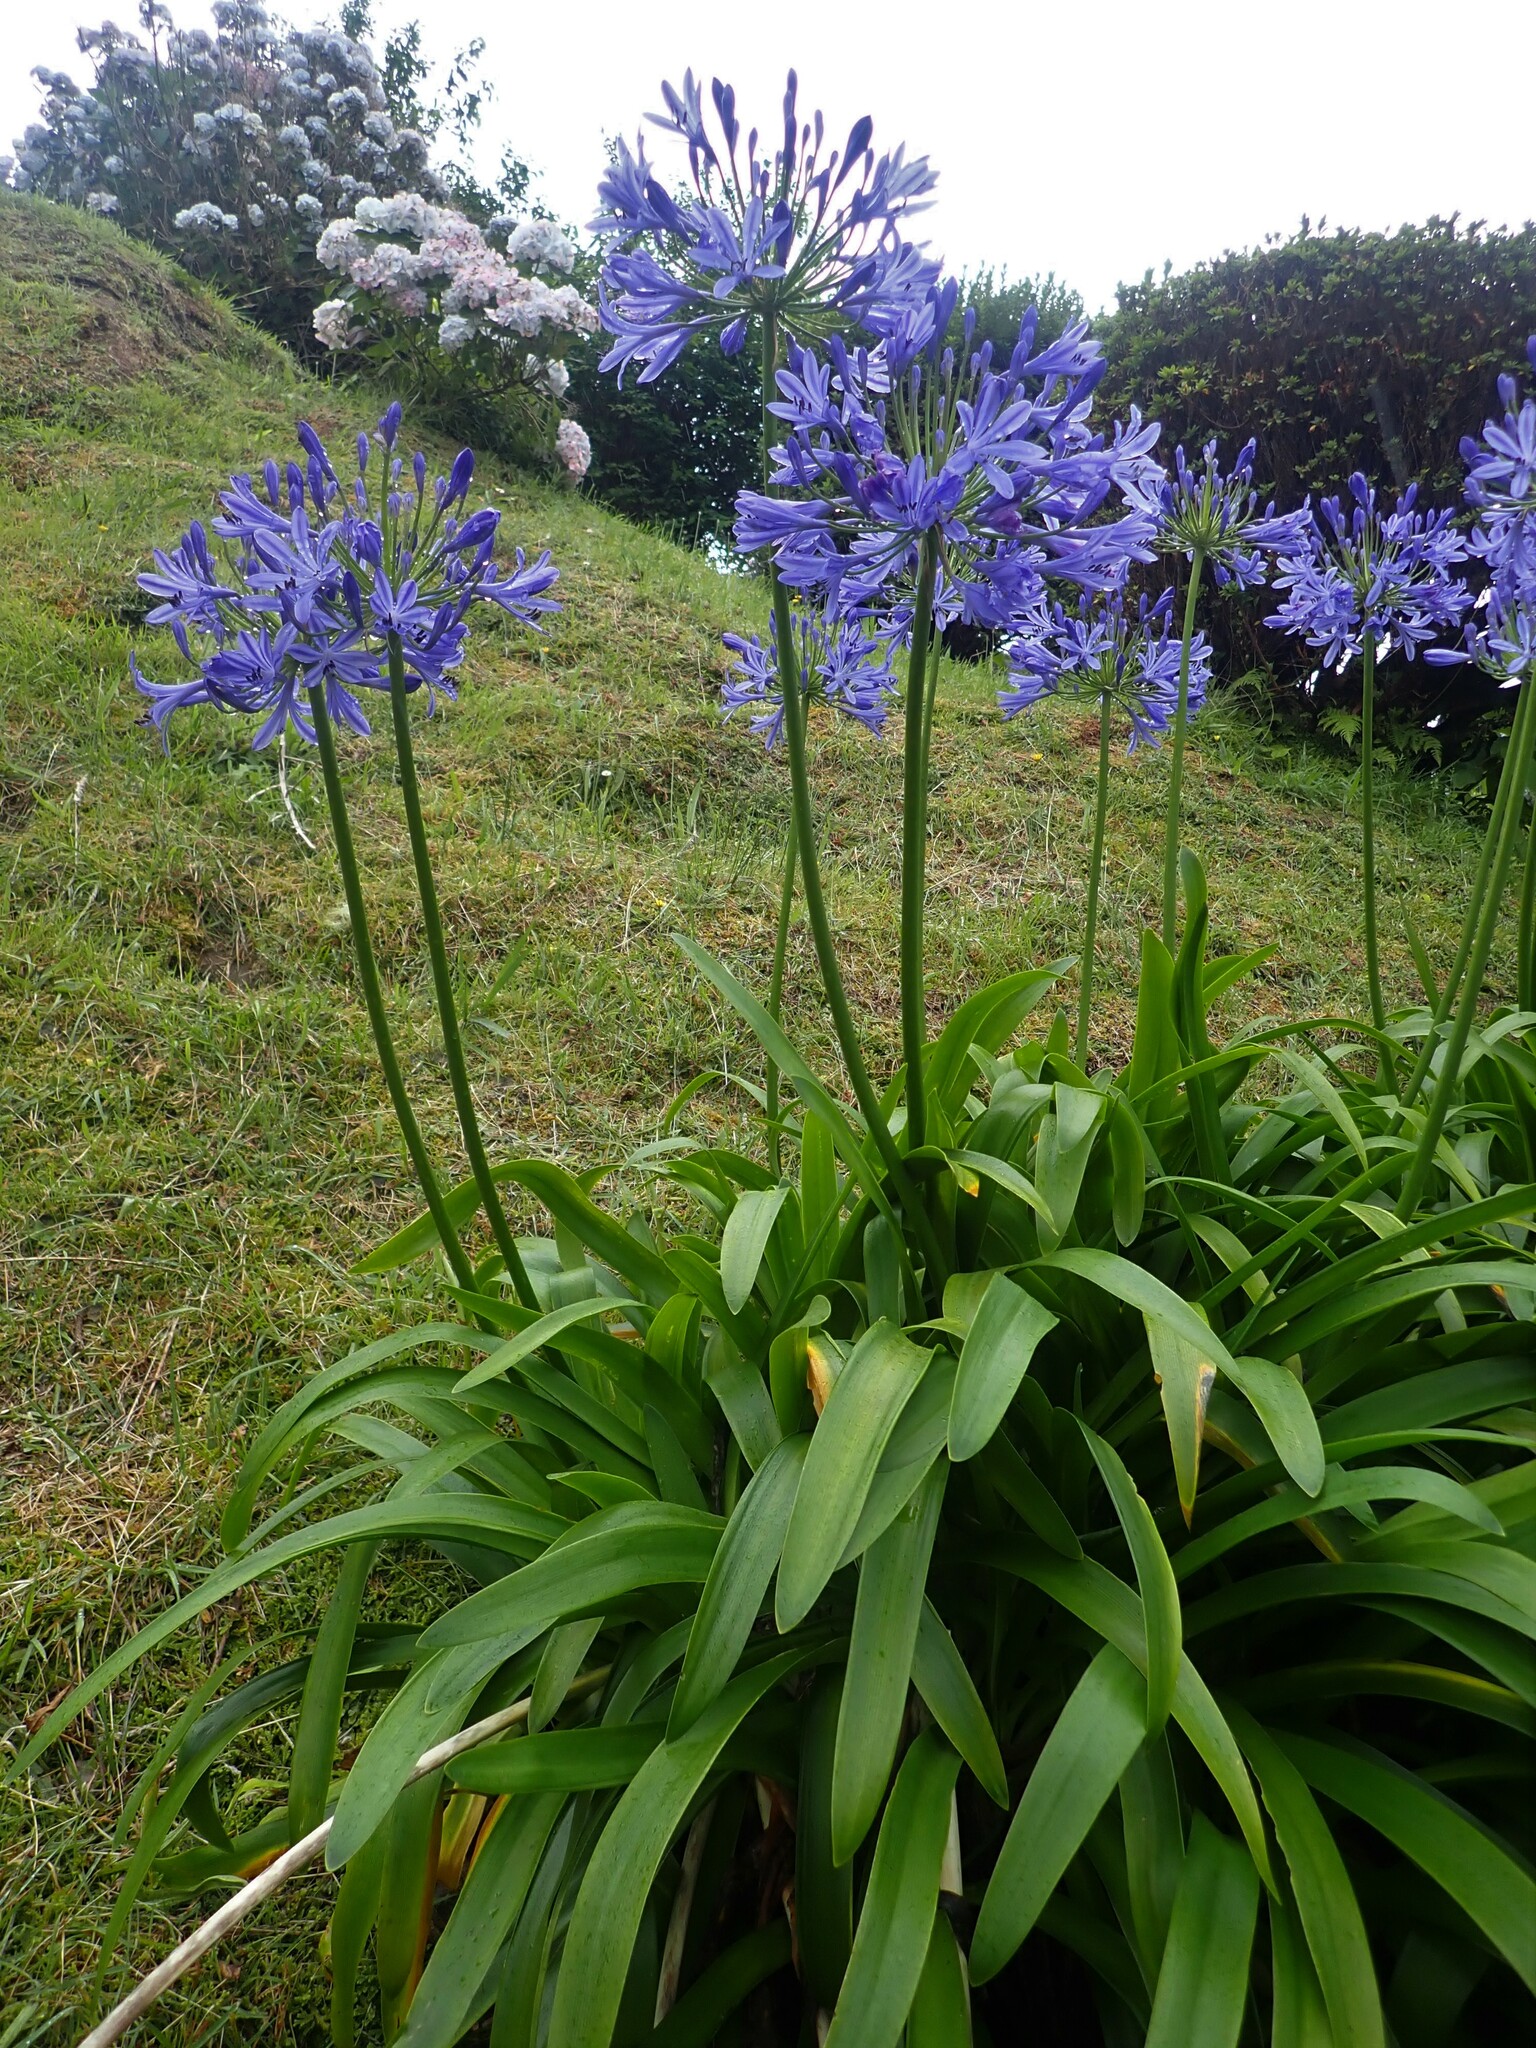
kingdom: Plantae
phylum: Tracheophyta
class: Liliopsida
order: Asparagales
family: Amaryllidaceae
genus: Agapanthus
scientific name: Agapanthus praecox
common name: African-lily
